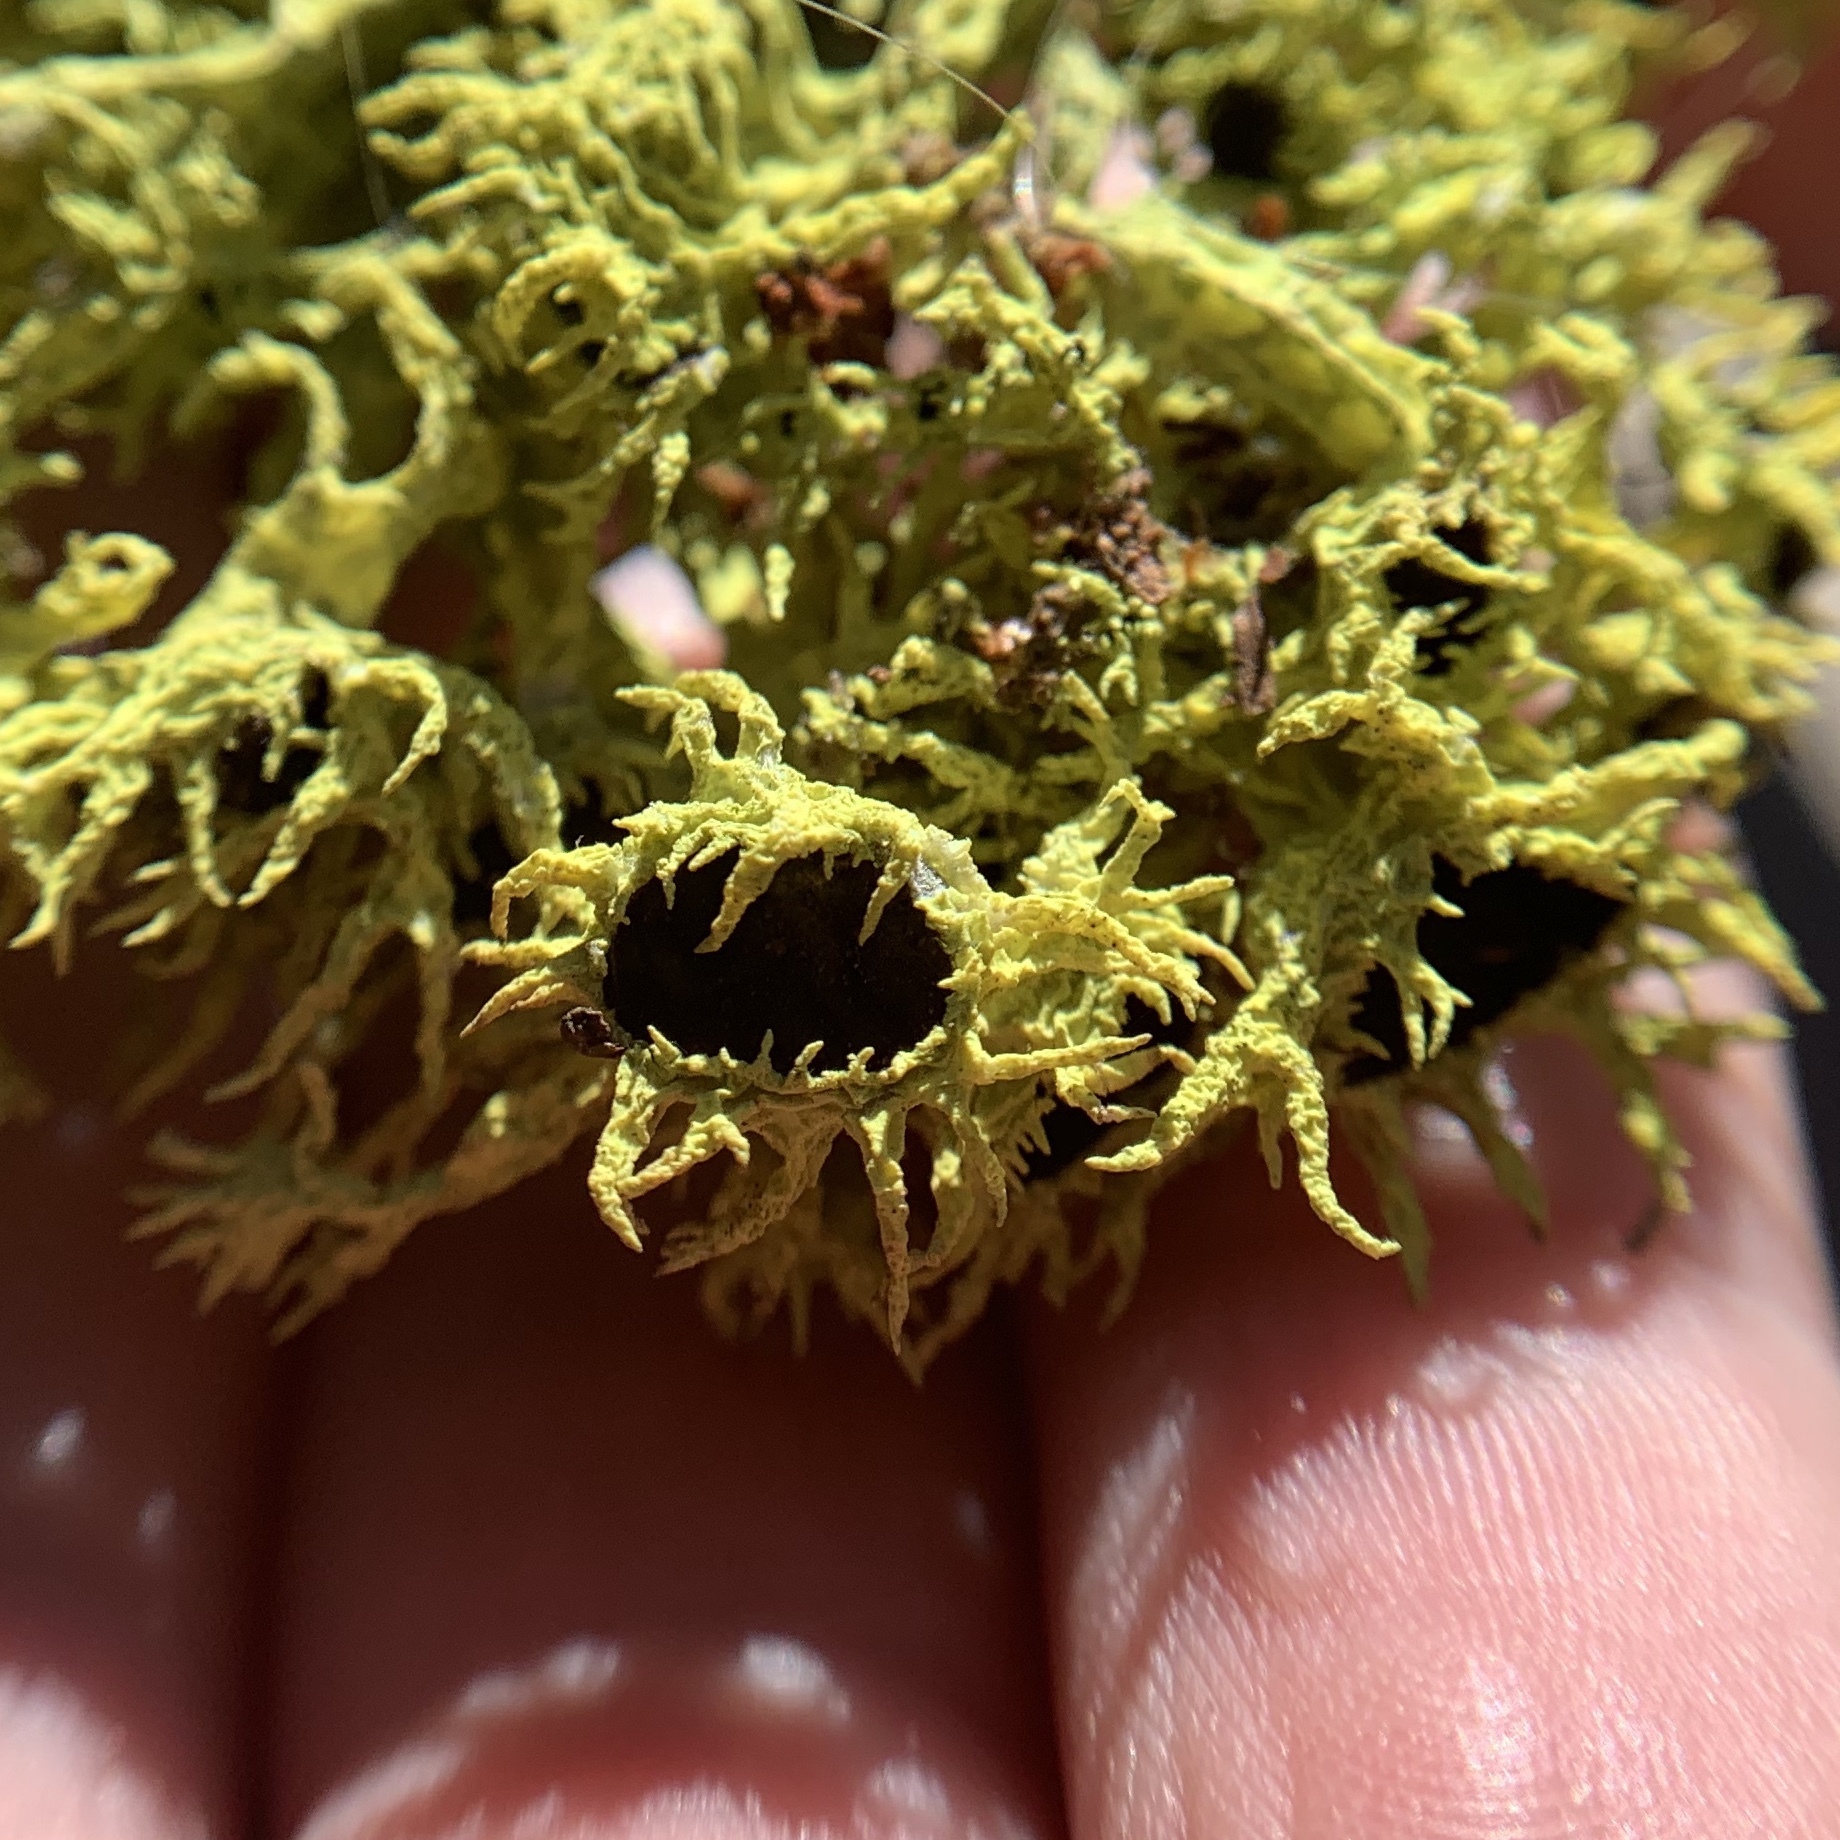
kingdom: Fungi
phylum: Ascomycota
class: Lecanoromycetes
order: Lecanorales
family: Parmeliaceae
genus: Letharia
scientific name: Letharia columbiana
